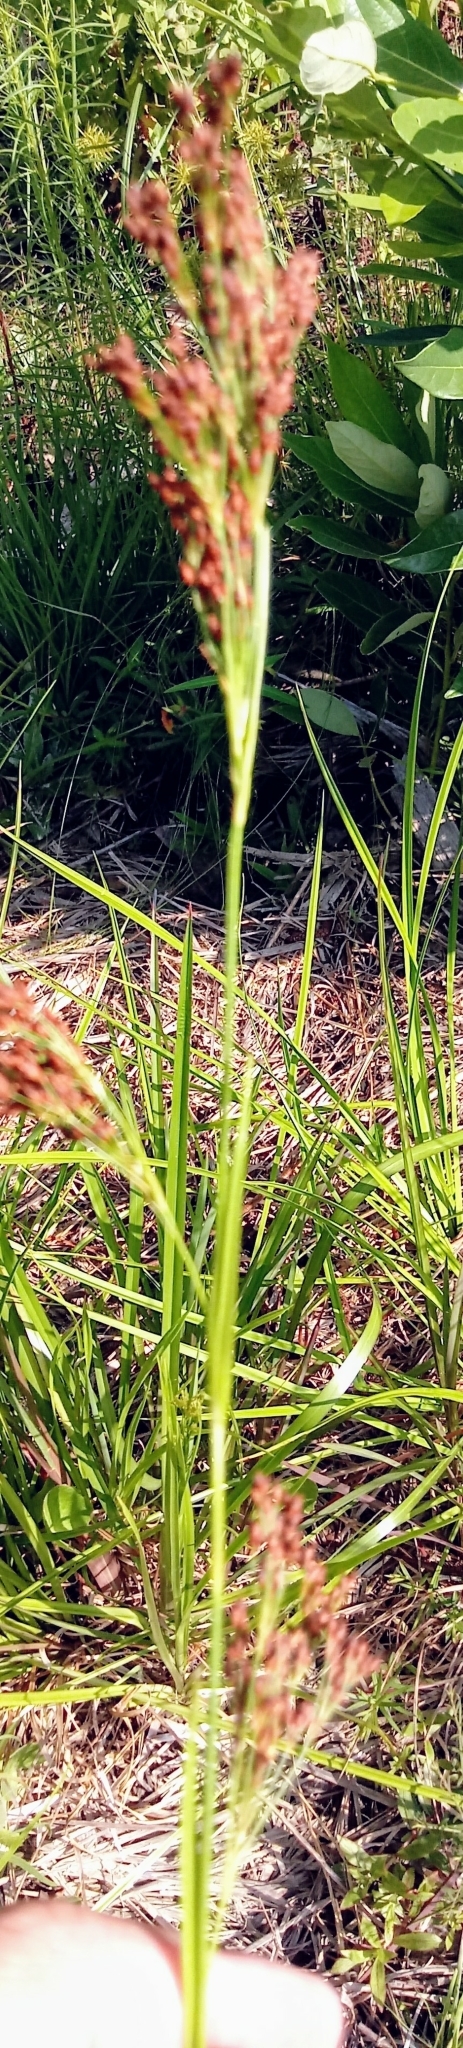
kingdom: Plantae
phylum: Tracheophyta
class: Liliopsida
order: Poales
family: Cyperaceae
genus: Scirpus
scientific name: Scirpus cyperinus
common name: Black-sheathed bulrush
